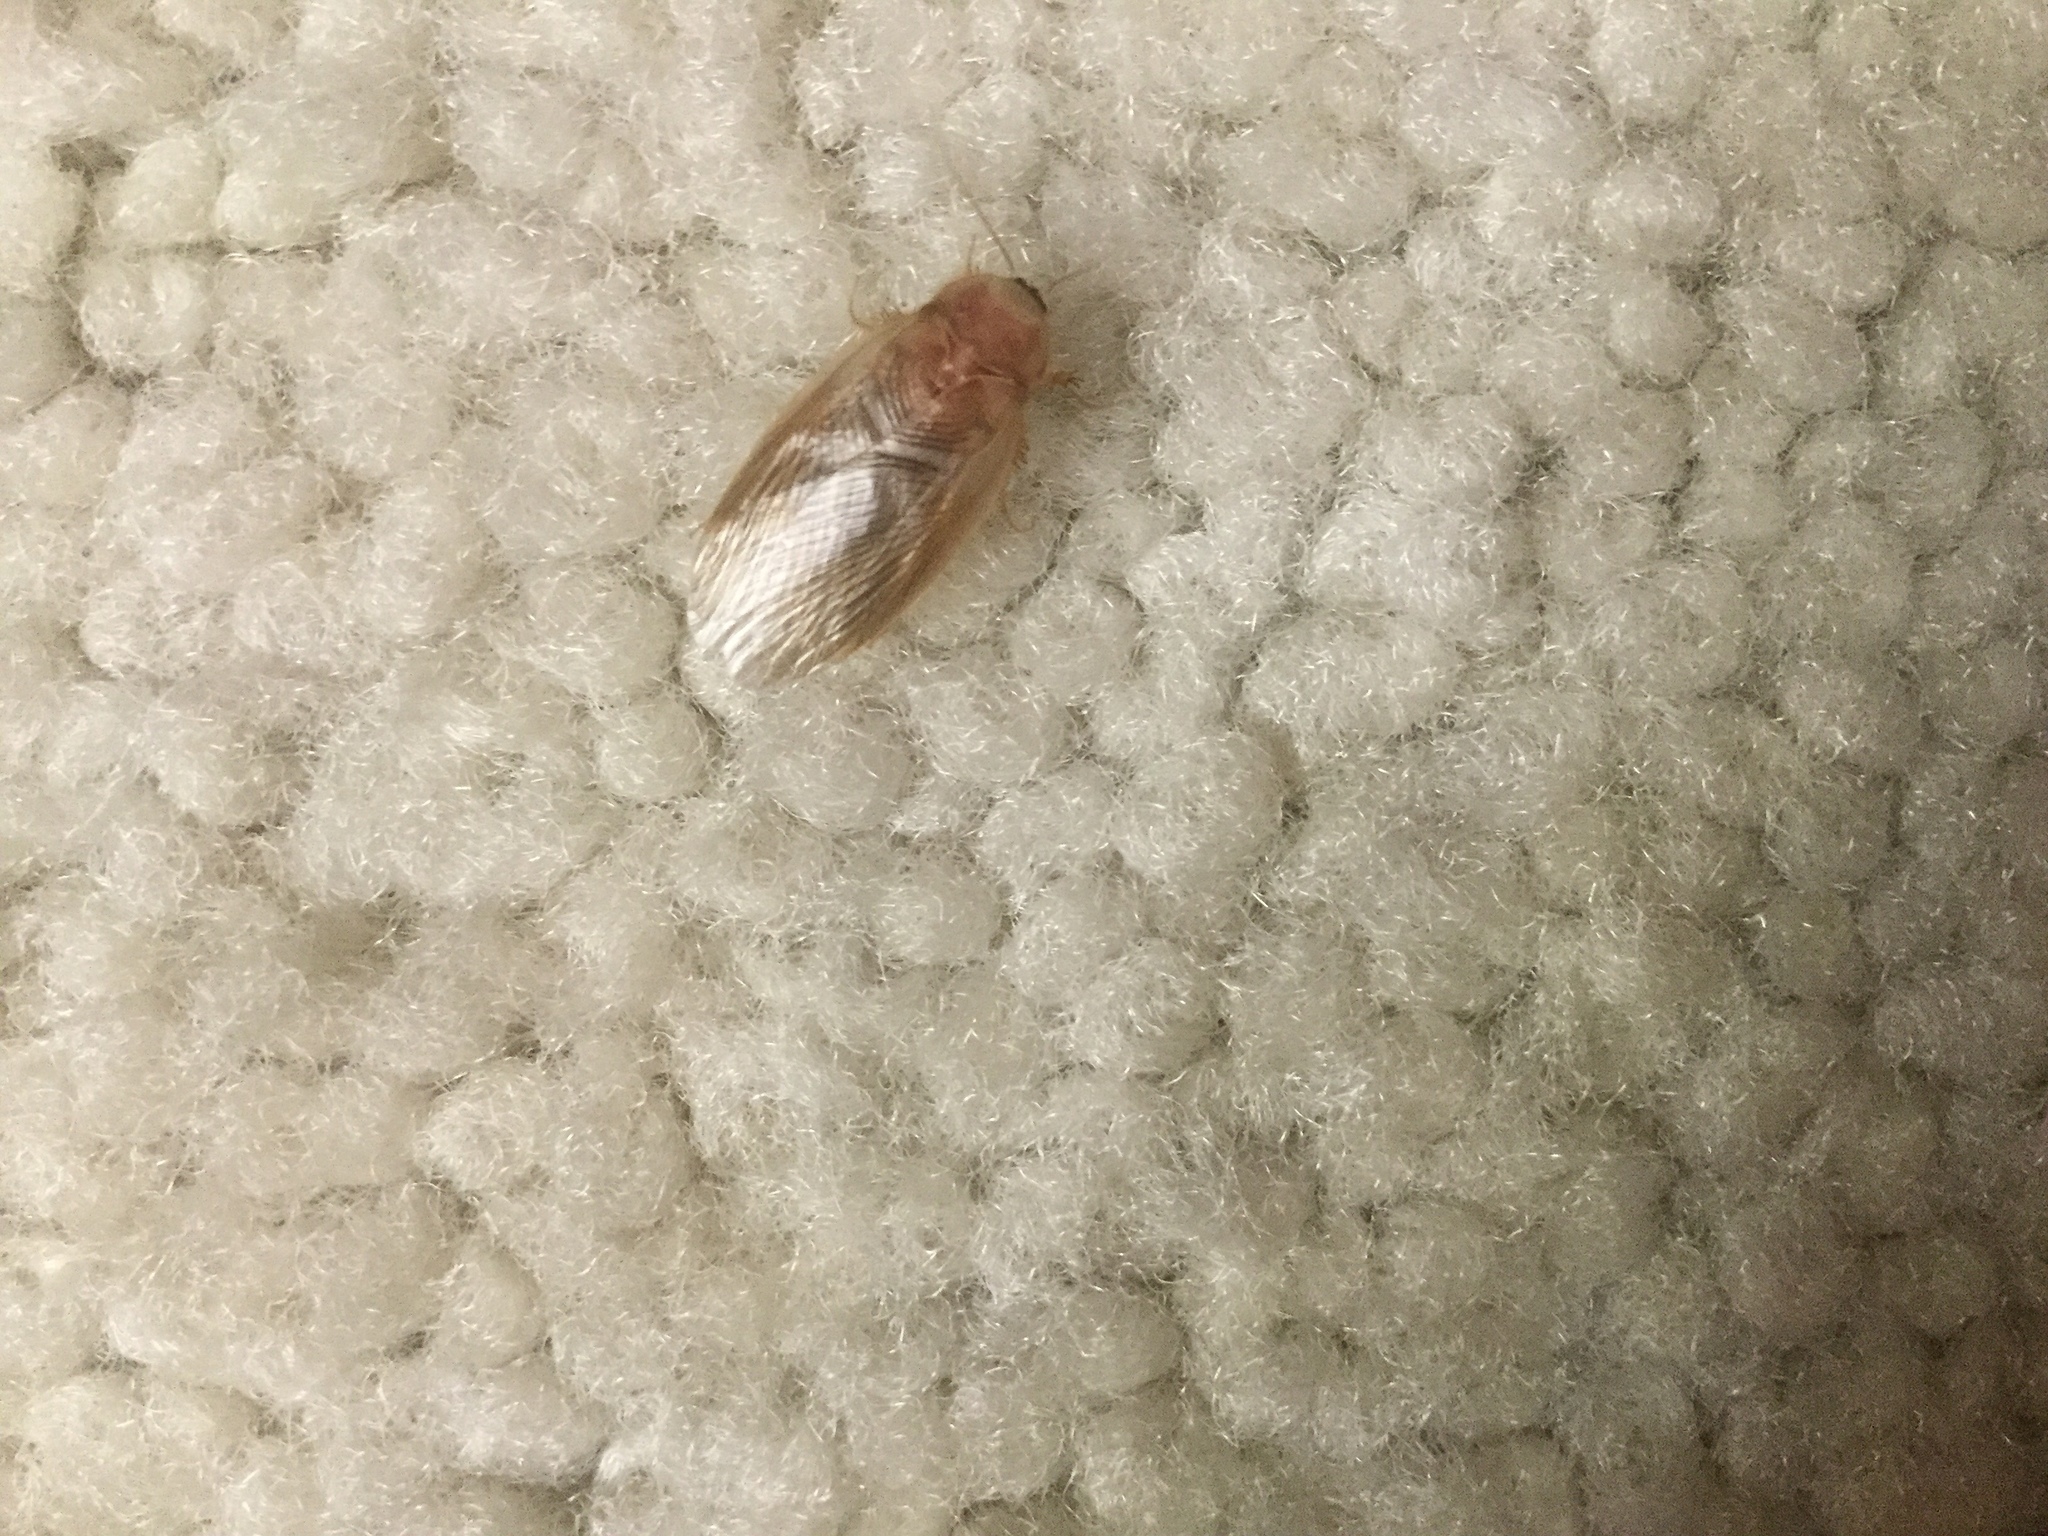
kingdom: Animalia
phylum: Arthropoda
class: Insecta
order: Blattodea
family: Corydiidae
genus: Eremoblatta
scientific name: Eremoblatta subdiaphana
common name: Hairy desert cockroach
